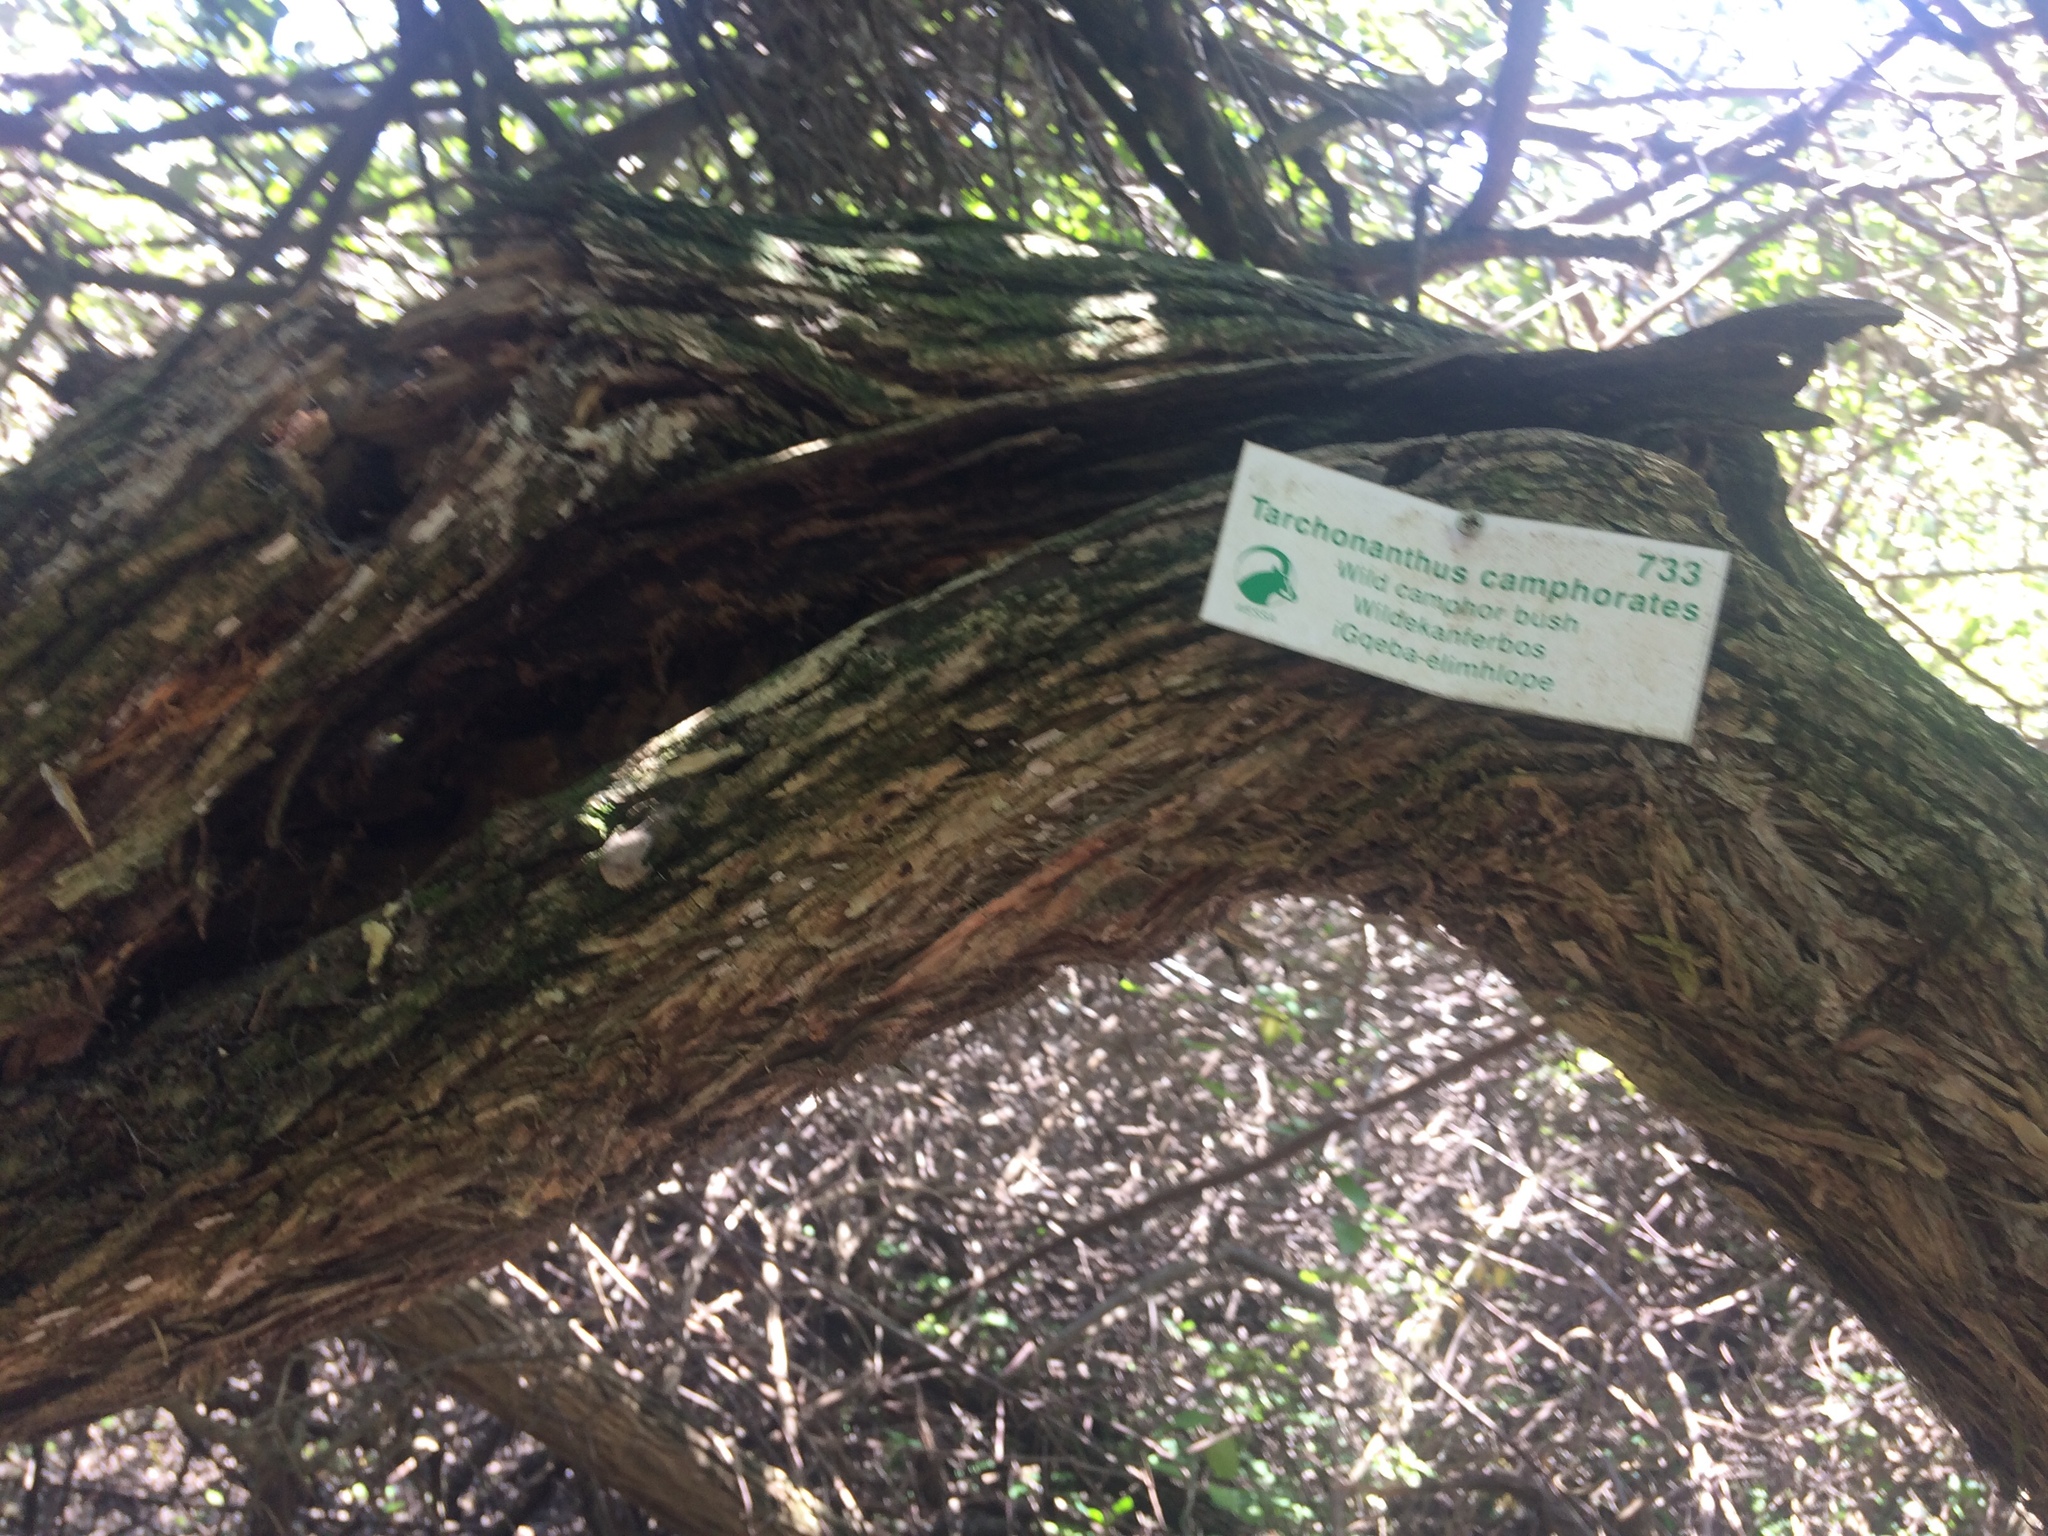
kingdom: Plantae
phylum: Tracheophyta
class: Magnoliopsida
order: Asterales
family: Asteraceae
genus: Tarchonanthus
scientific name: Tarchonanthus littoralis
